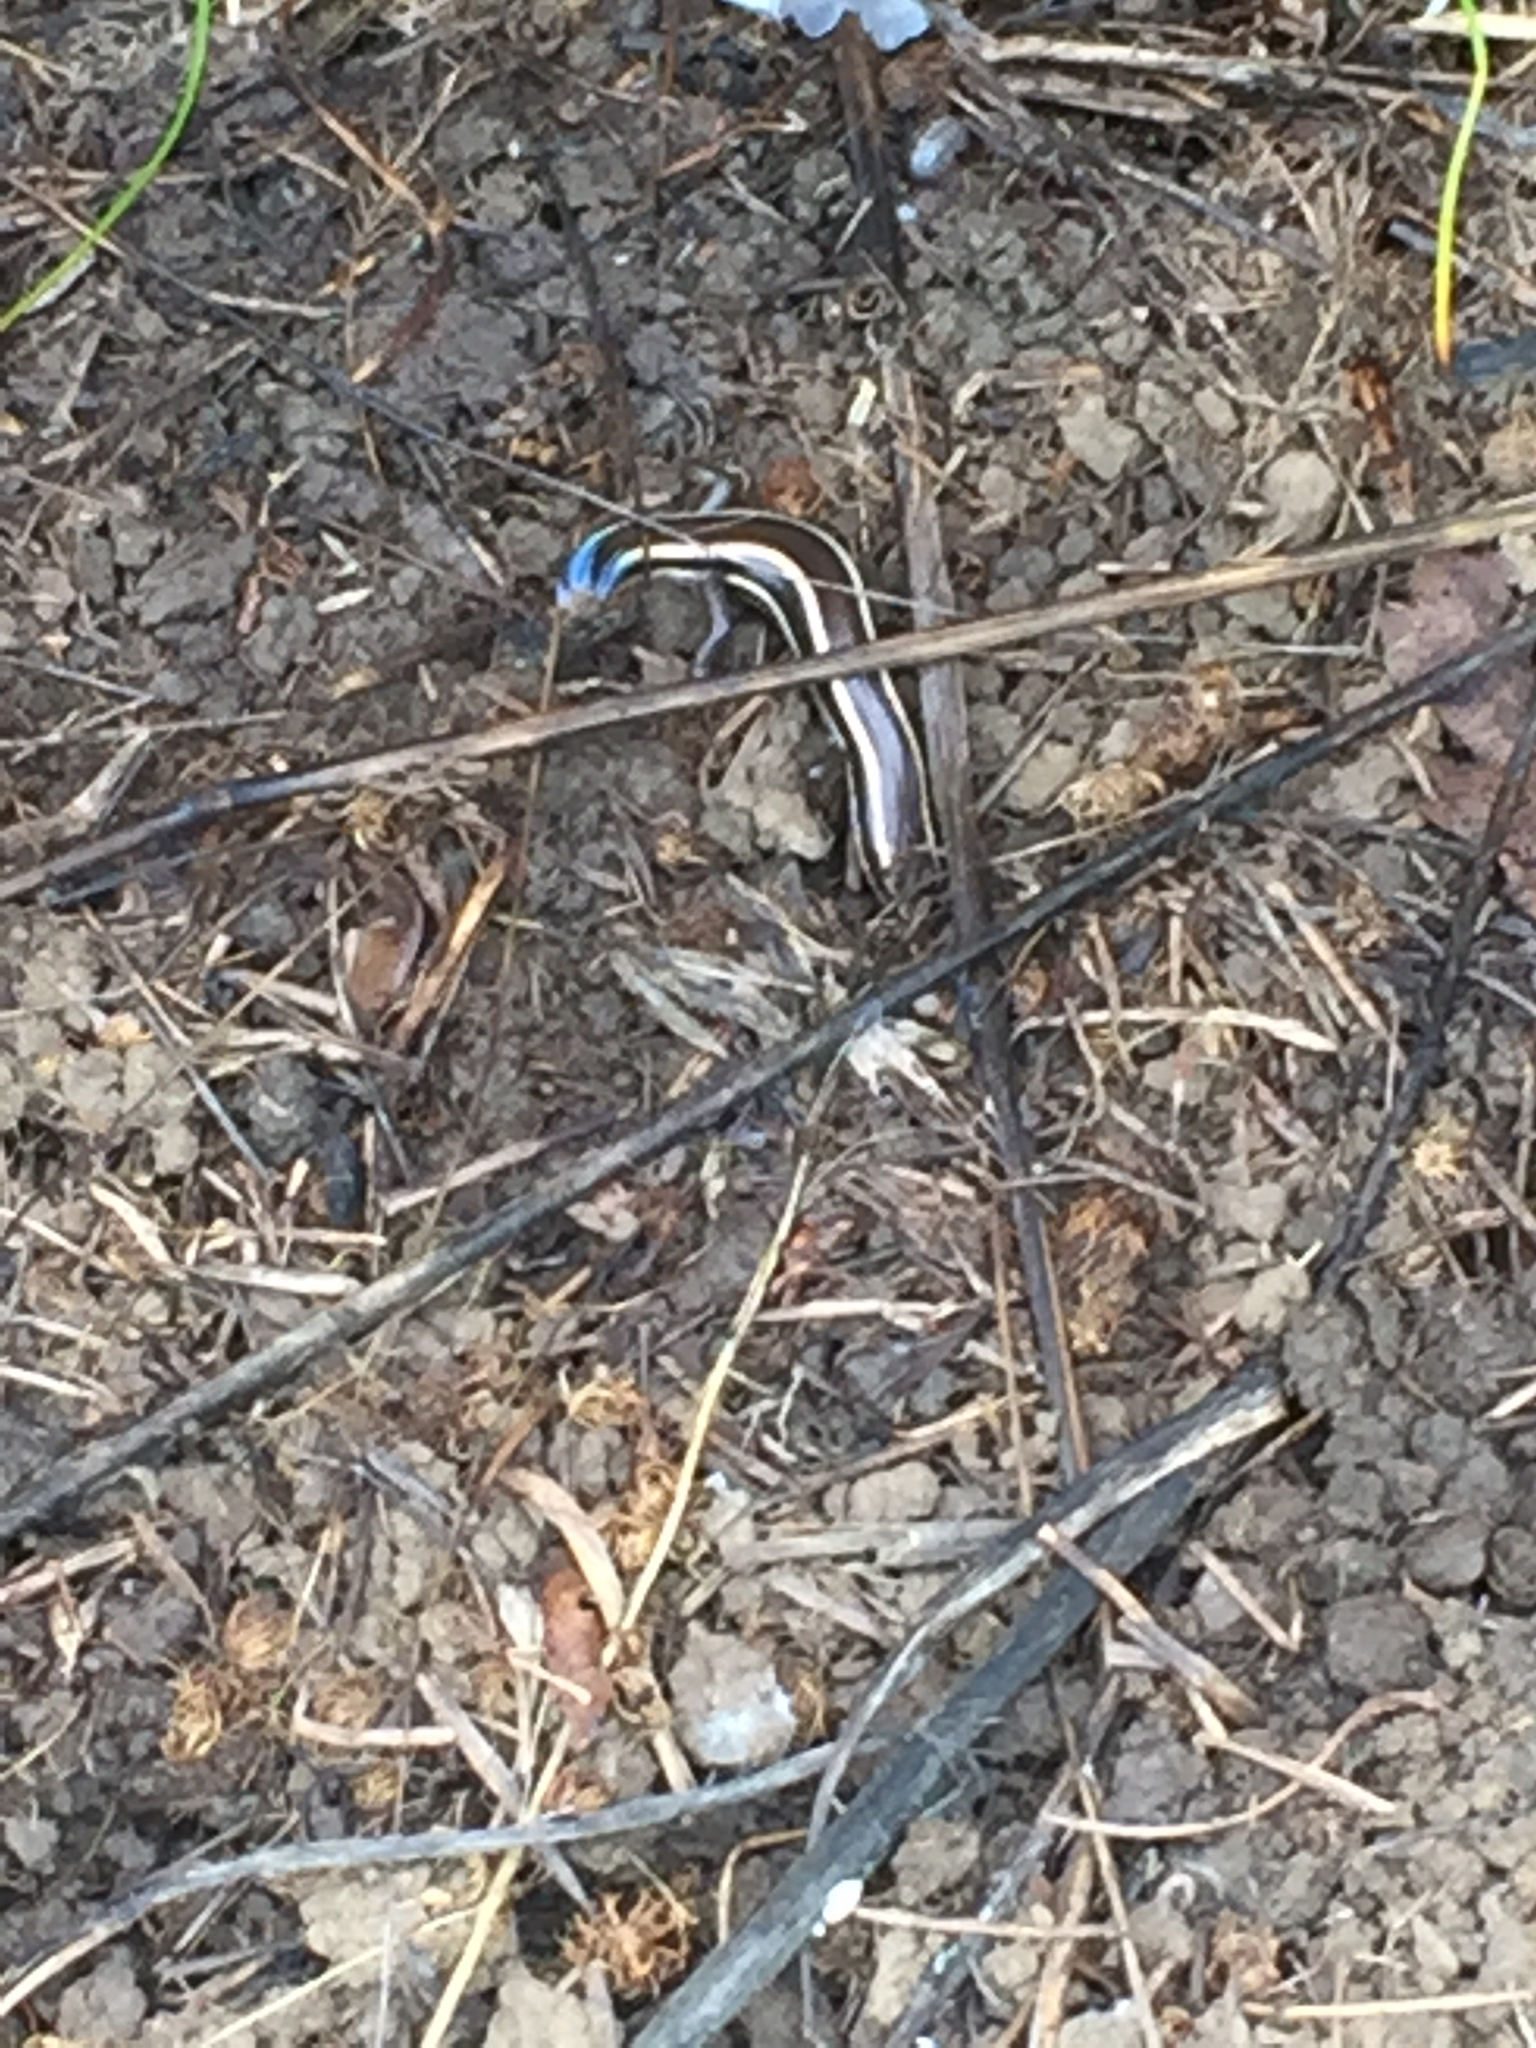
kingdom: Animalia
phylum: Chordata
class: Squamata
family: Scincidae
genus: Plestiodon
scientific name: Plestiodon skiltonianus
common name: Coronado island skink [interparietalis]
